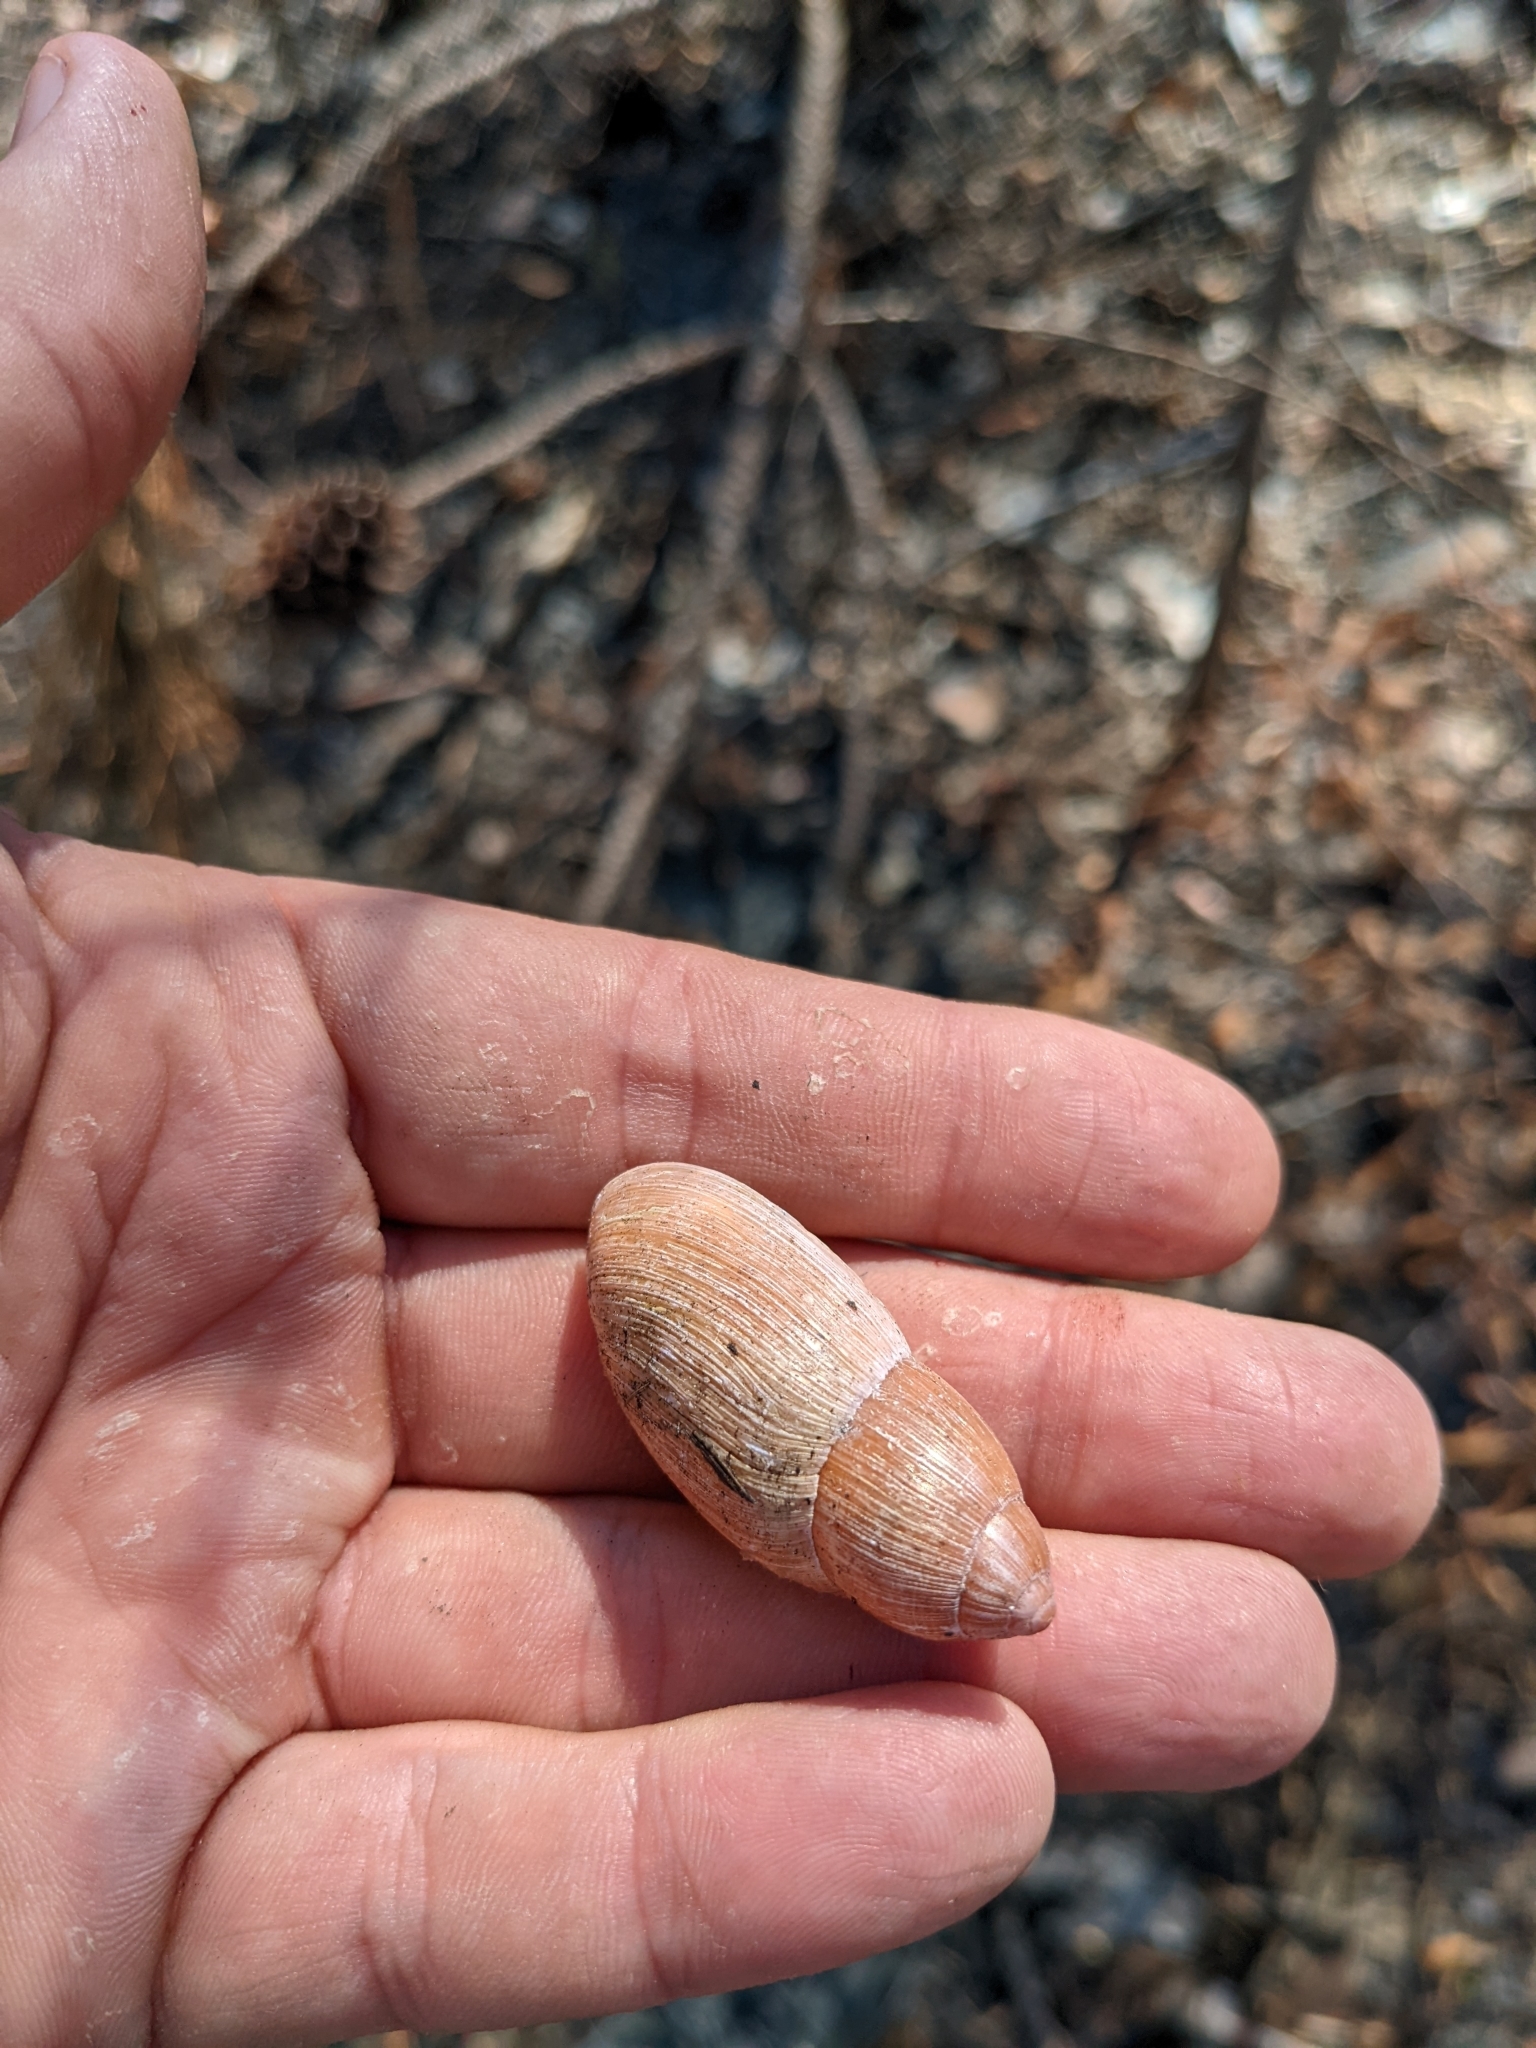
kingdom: Animalia
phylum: Mollusca
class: Gastropoda
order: Stylommatophora
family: Spiraxidae
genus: Euglandina
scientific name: Euglandina rosea
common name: Rosy wolfsnail
